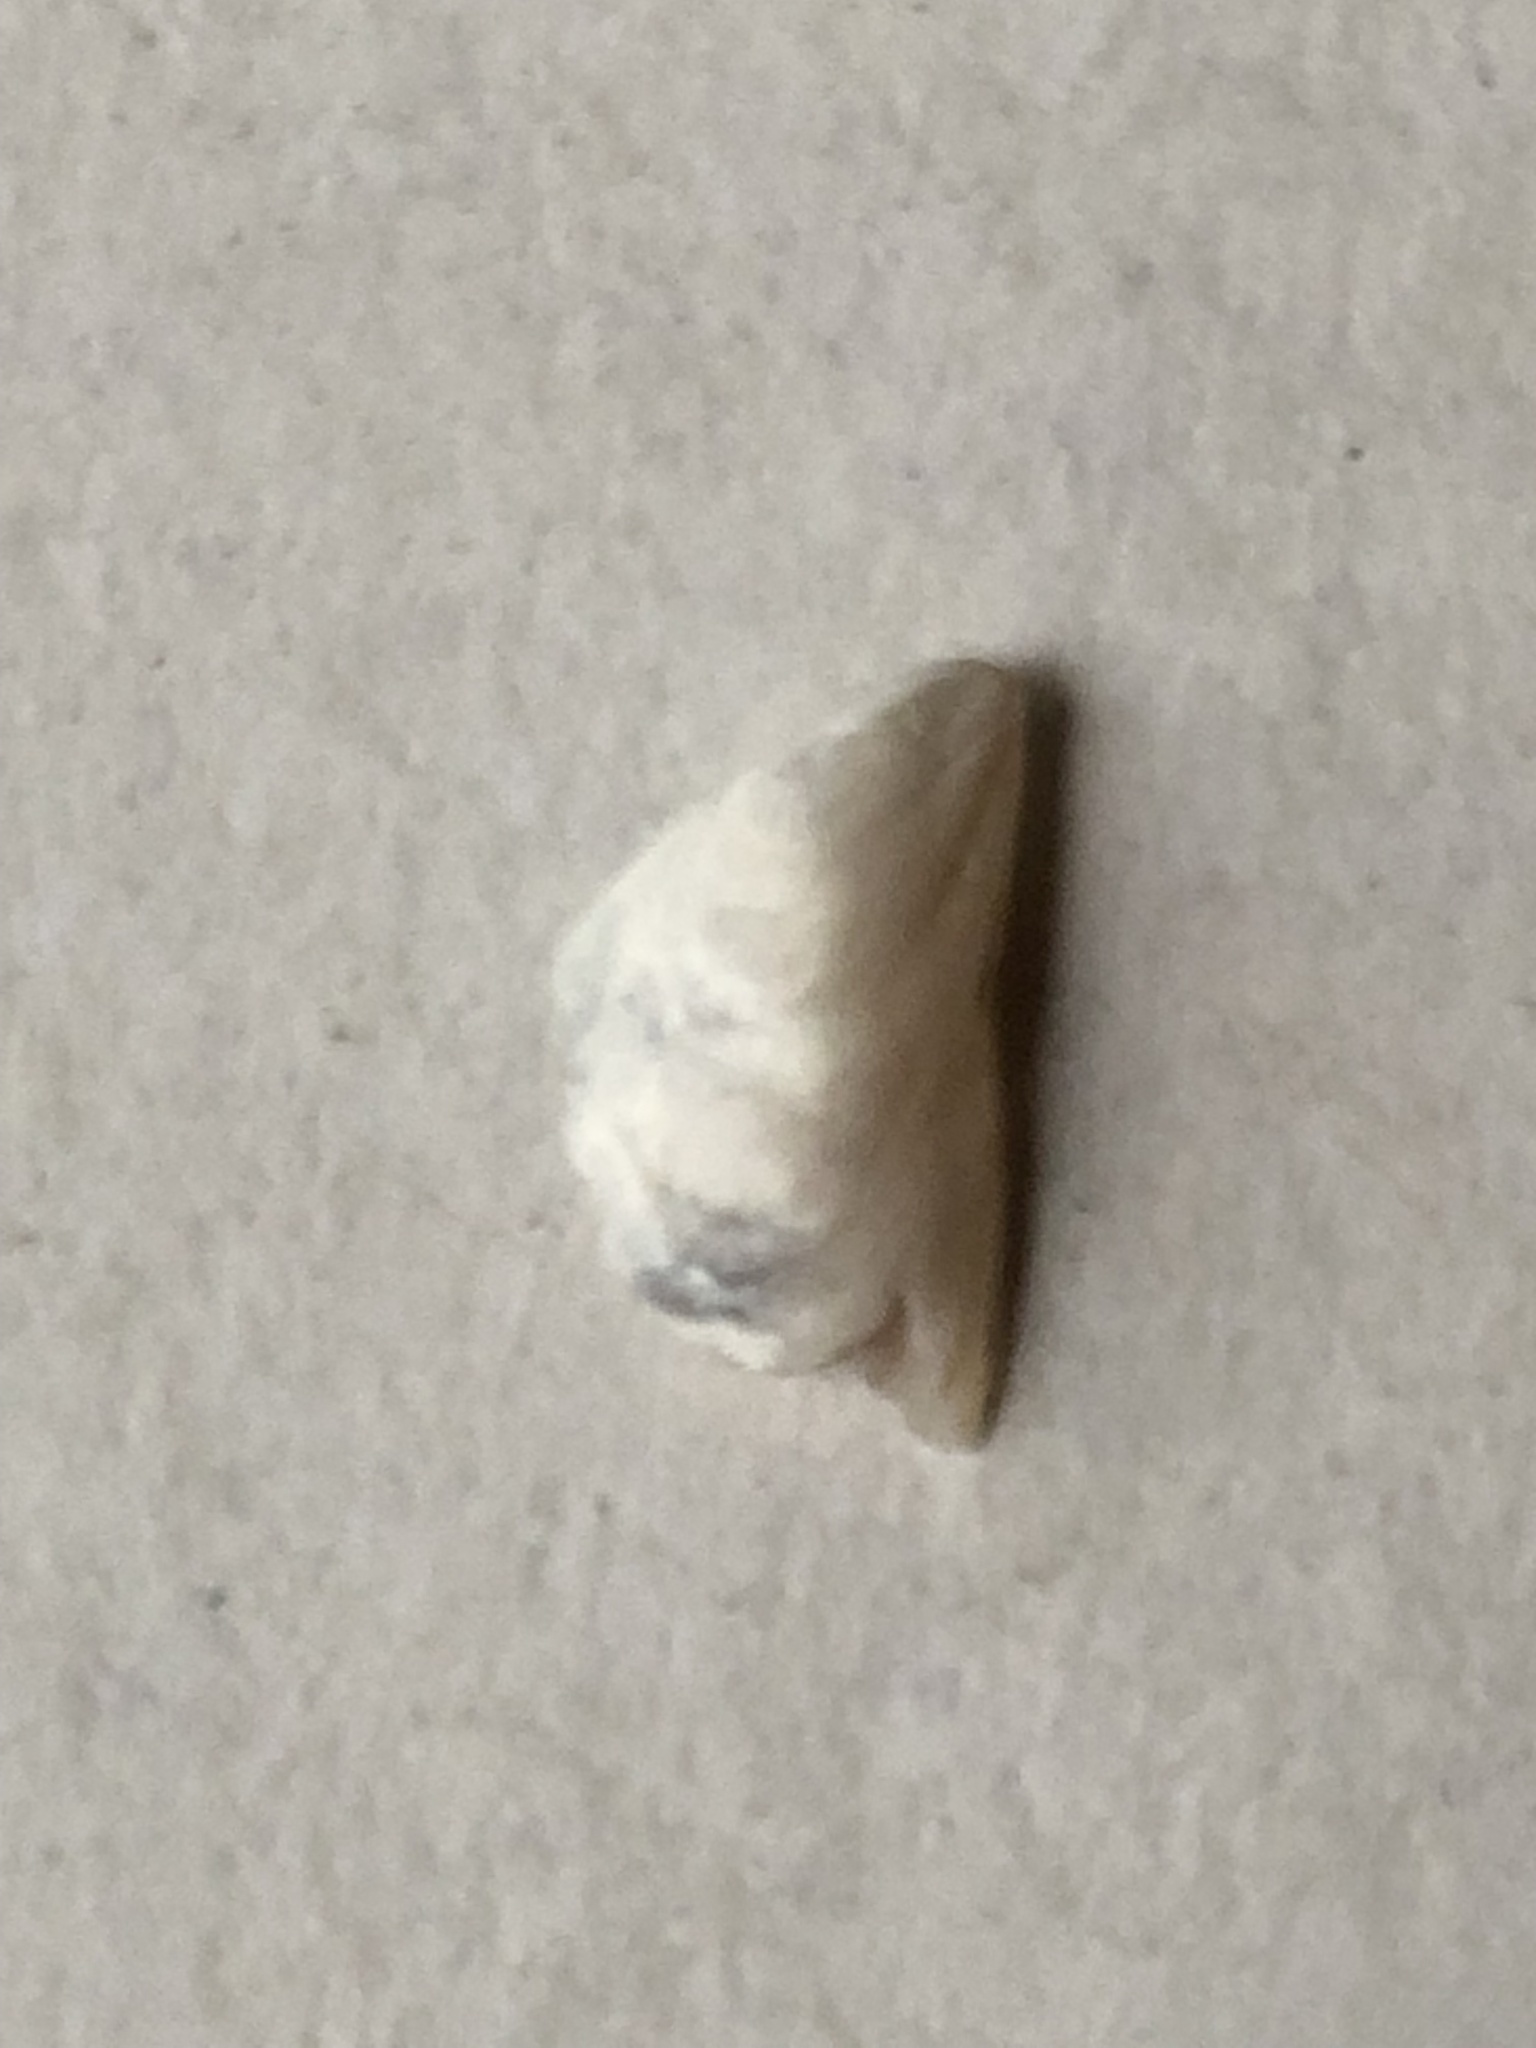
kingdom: Animalia
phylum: Mollusca
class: Bivalvia
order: Myida
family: Dreissenidae
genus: Dreissena
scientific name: Dreissena bugensis
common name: Quagga mussel
